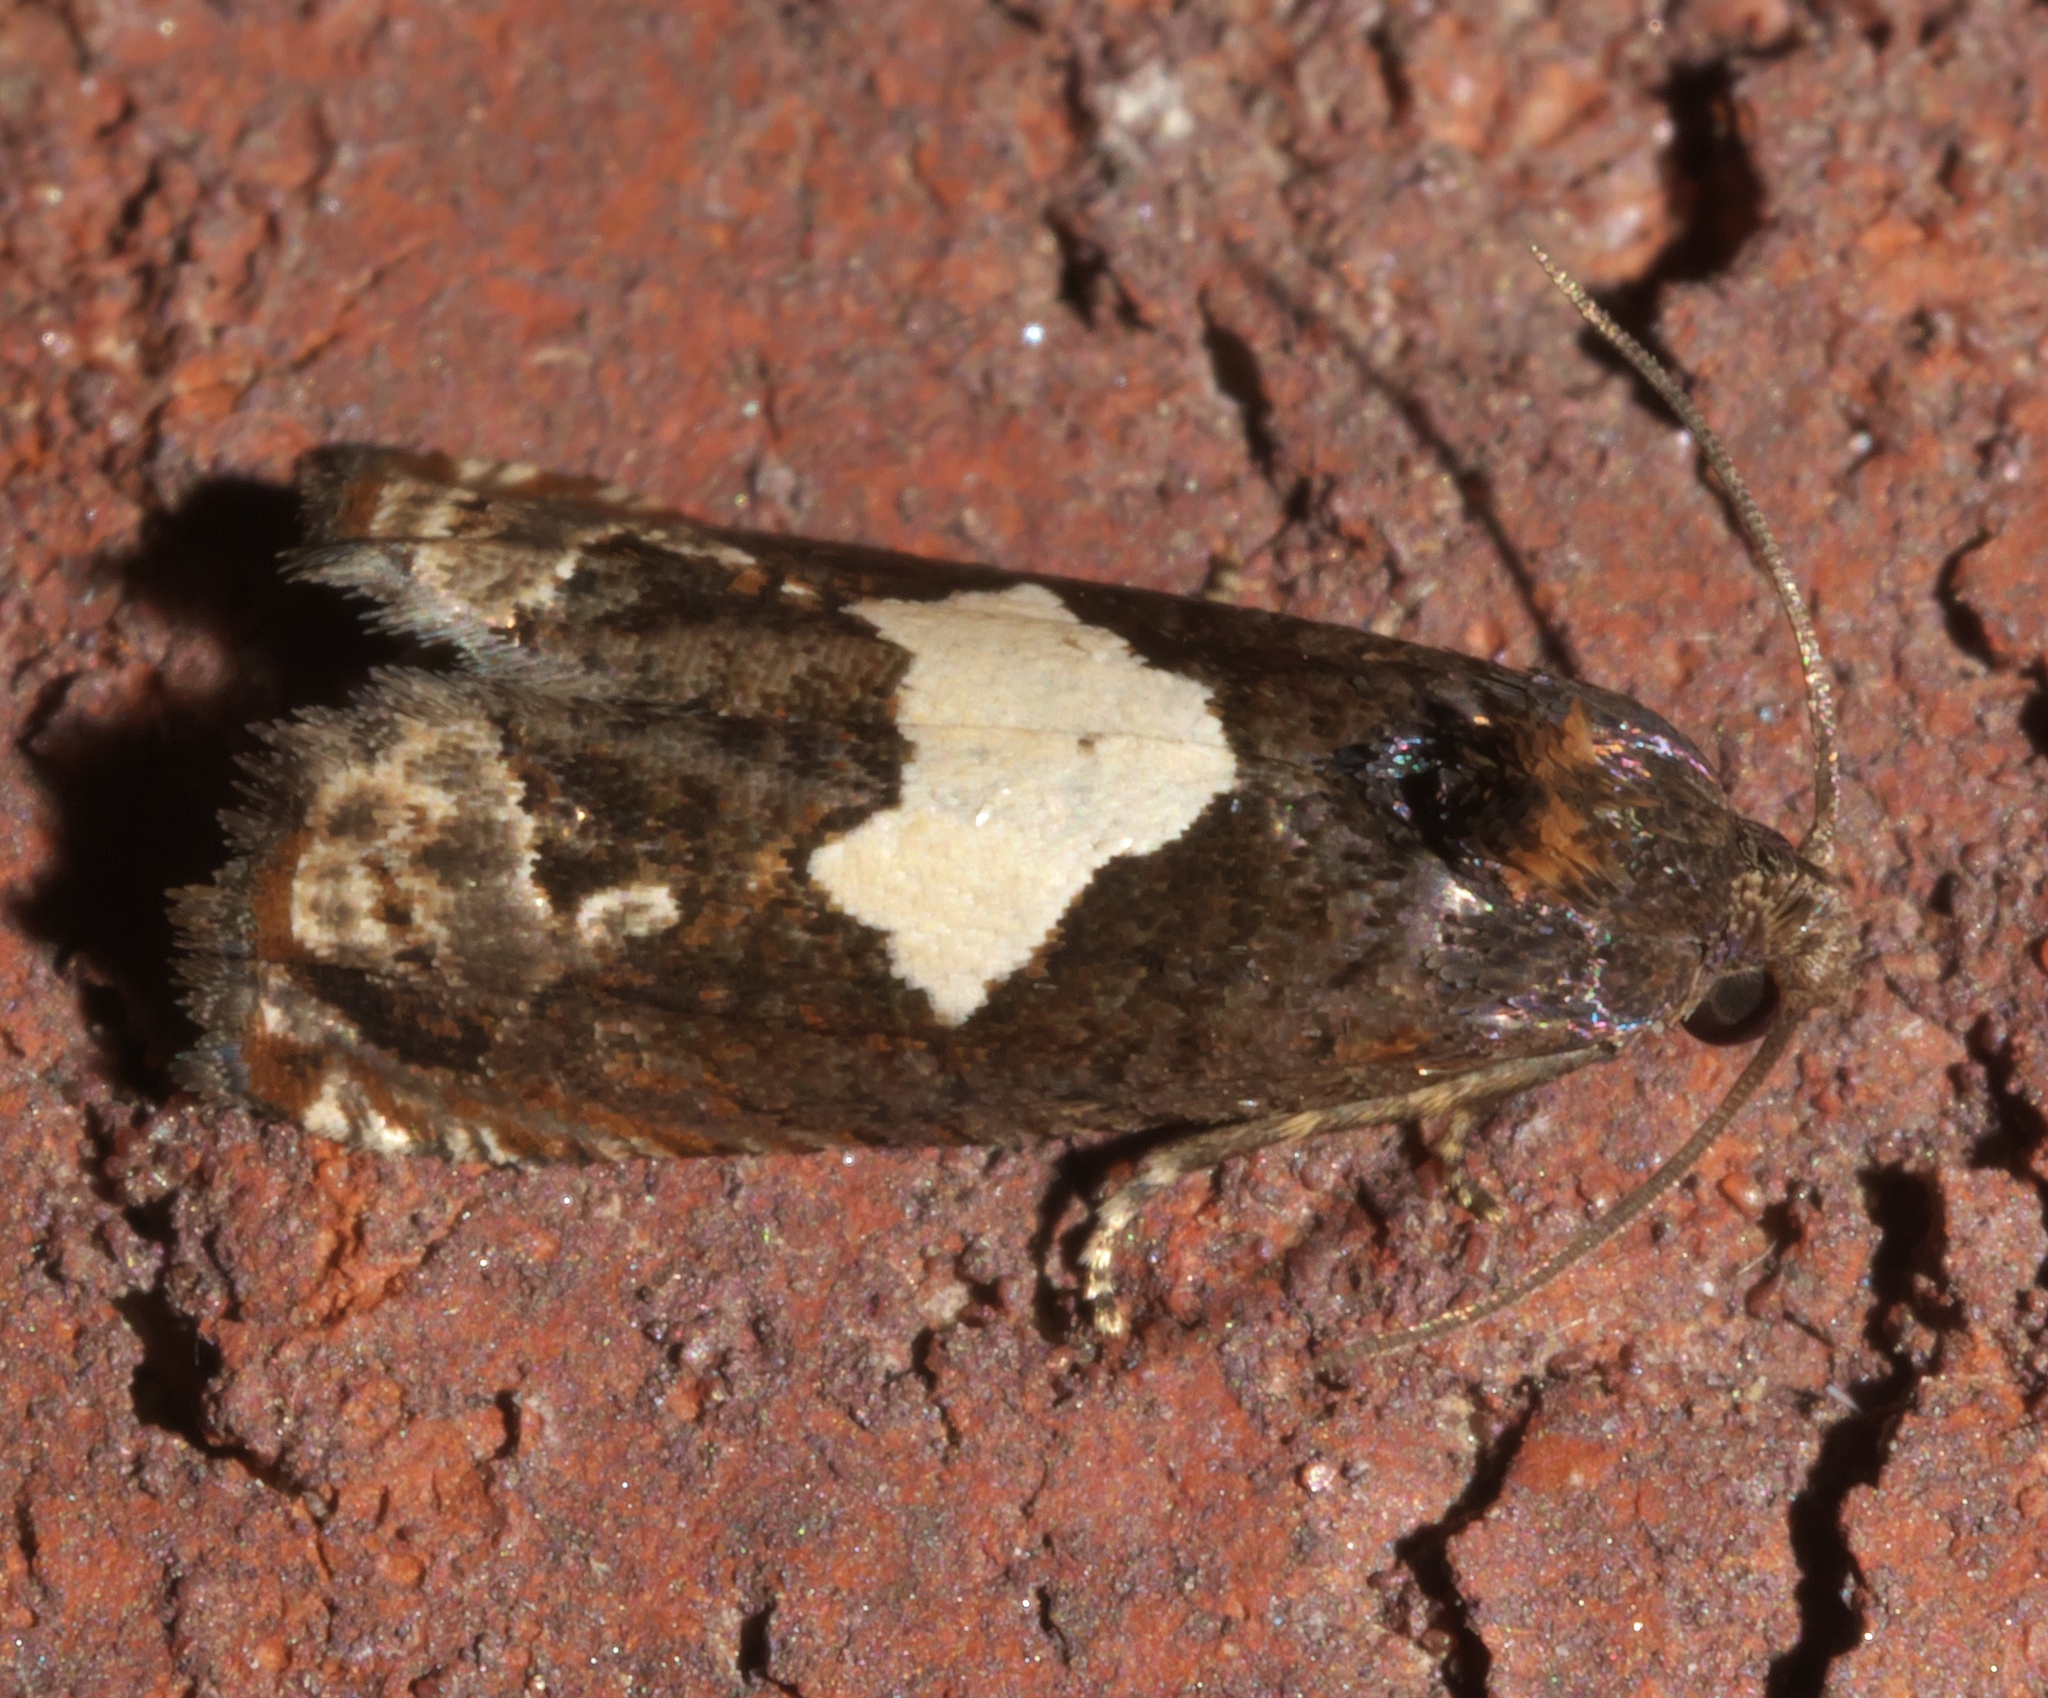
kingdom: Animalia
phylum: Arthropoda
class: Insecta
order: Lepidoptera
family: Tortricidae
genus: Epiblema
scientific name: Epiblema otiosana
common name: Bidens borer moth
